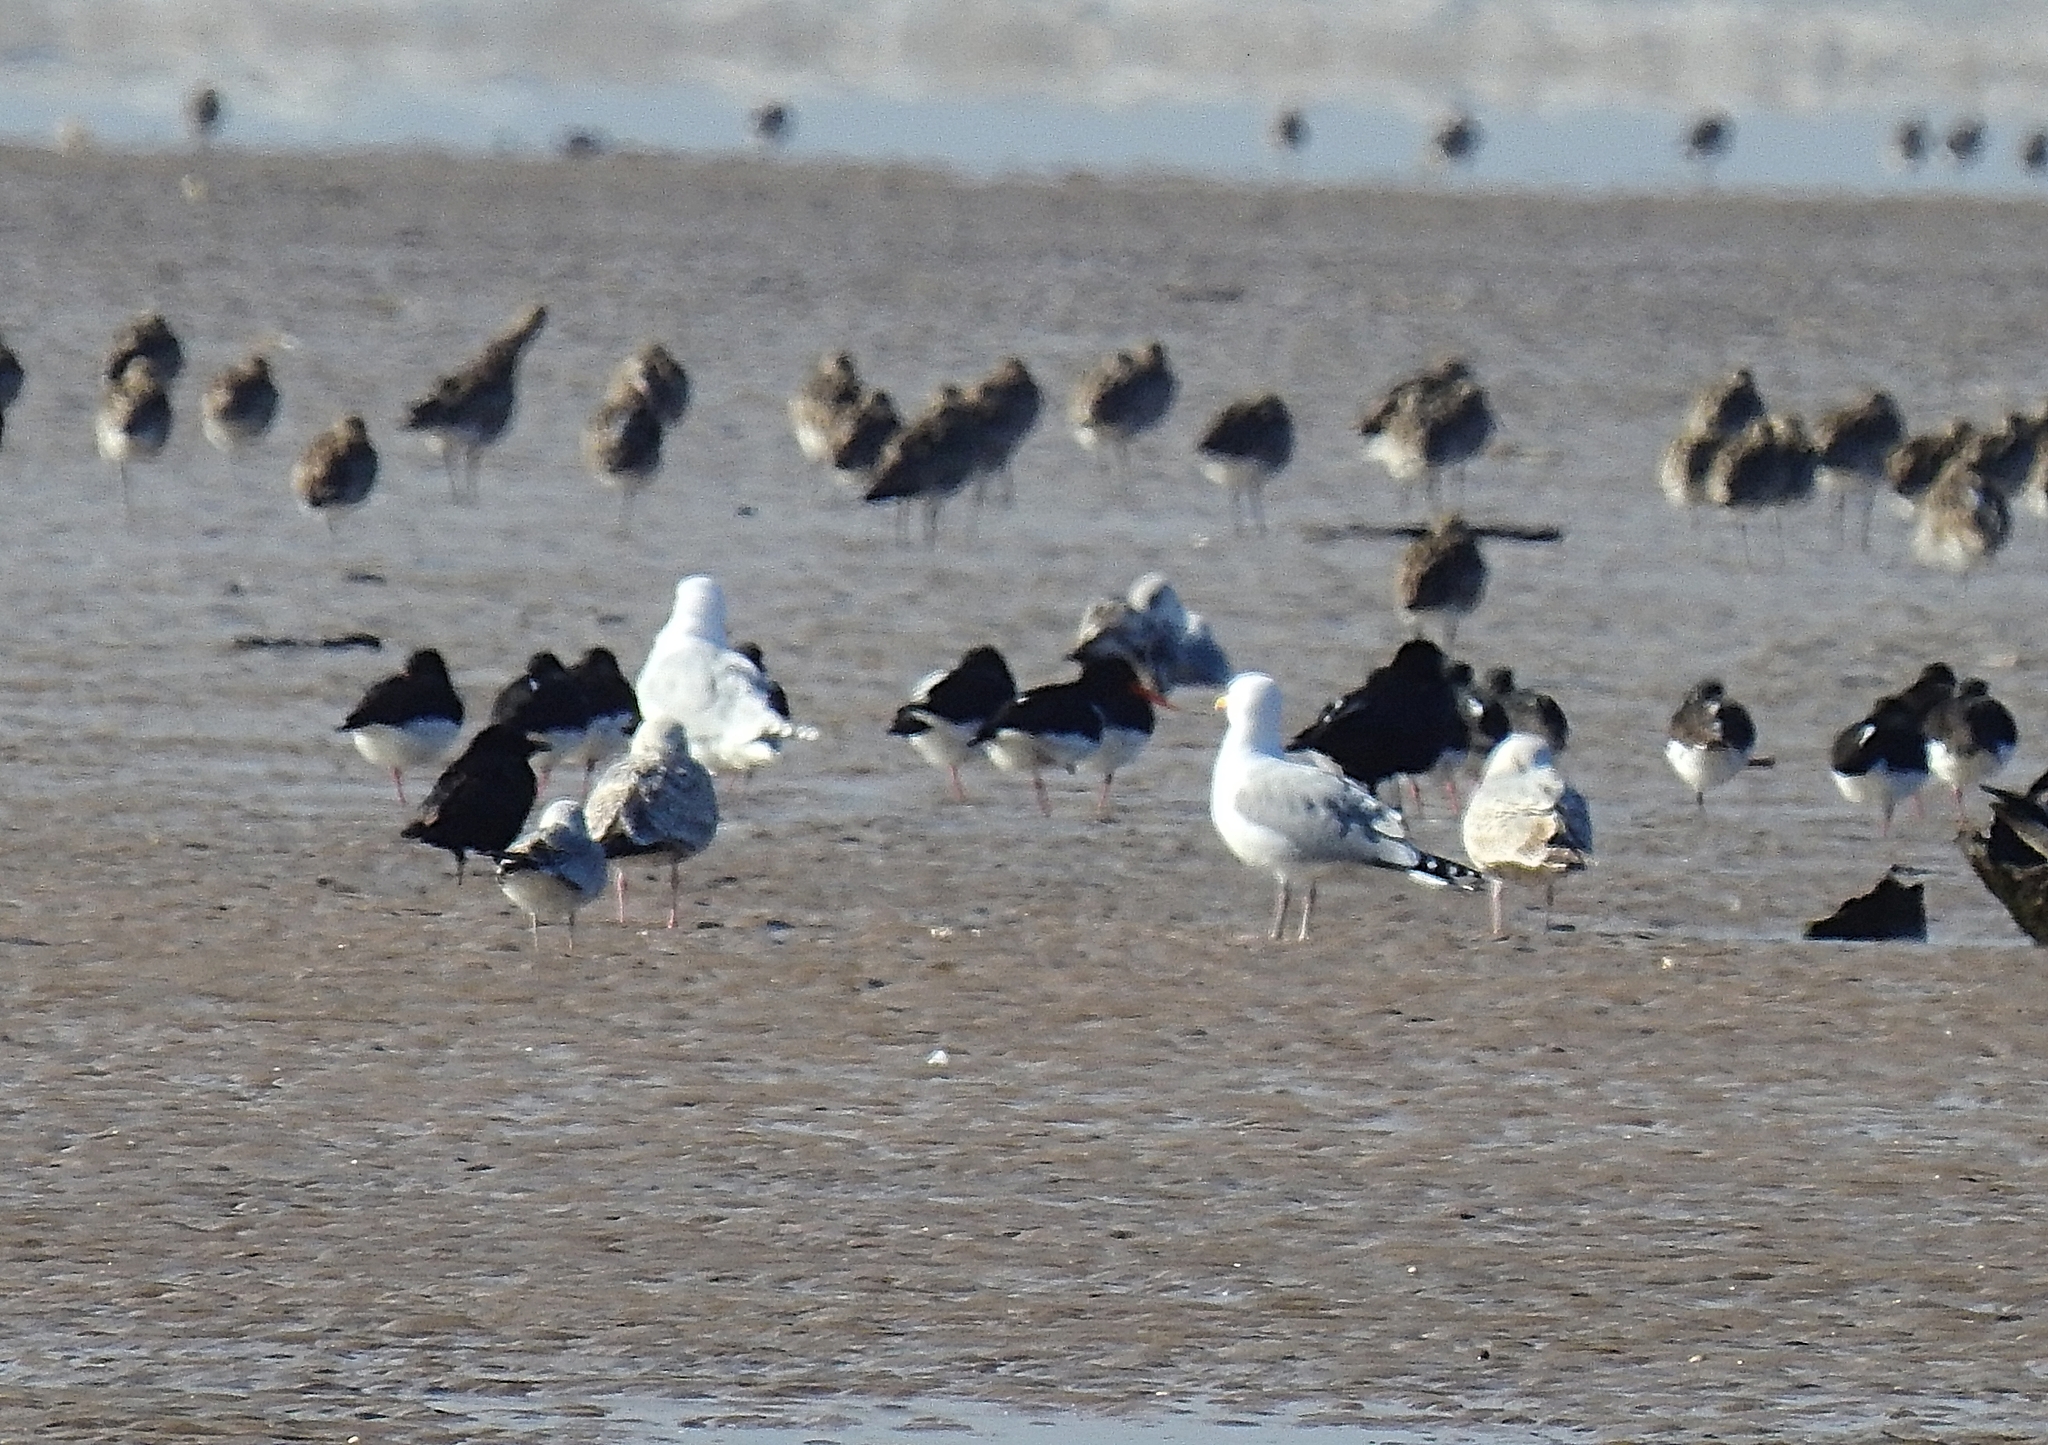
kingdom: Animalia
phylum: Chordata
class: Aves
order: Charadriiformes
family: Haematopodidae
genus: Haematopus
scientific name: Haematopus ostralegus
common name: Eurasian oystercatcher
